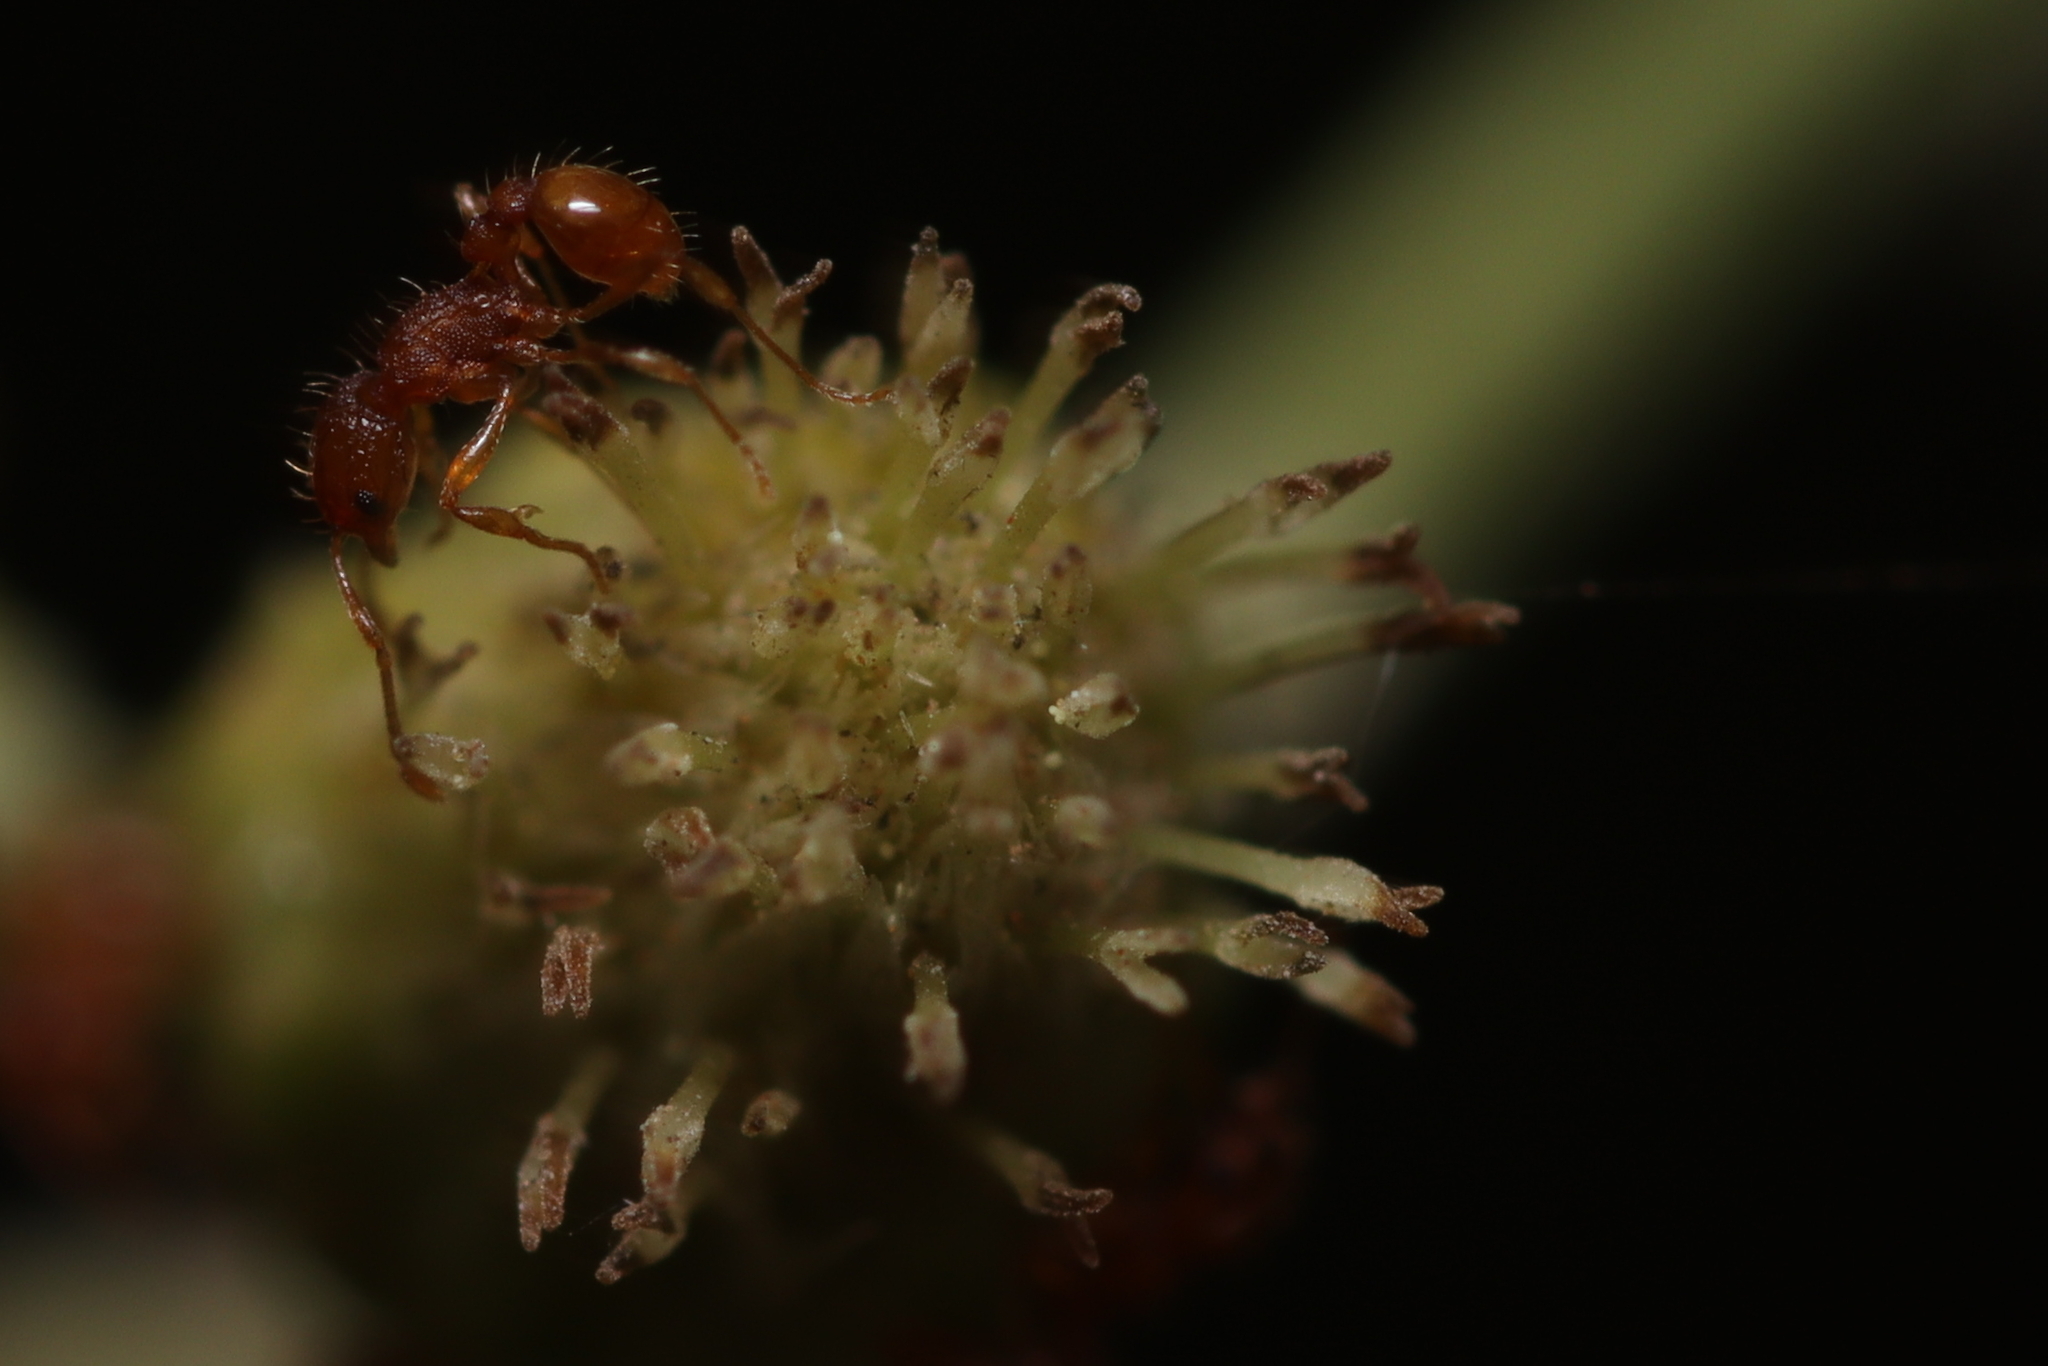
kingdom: Animalia
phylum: Arthropoda
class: Insecta
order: Hymenoptera
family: Formicidae
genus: Wasmannia
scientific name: Wasmannia auropunctata
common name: Little fire ant
